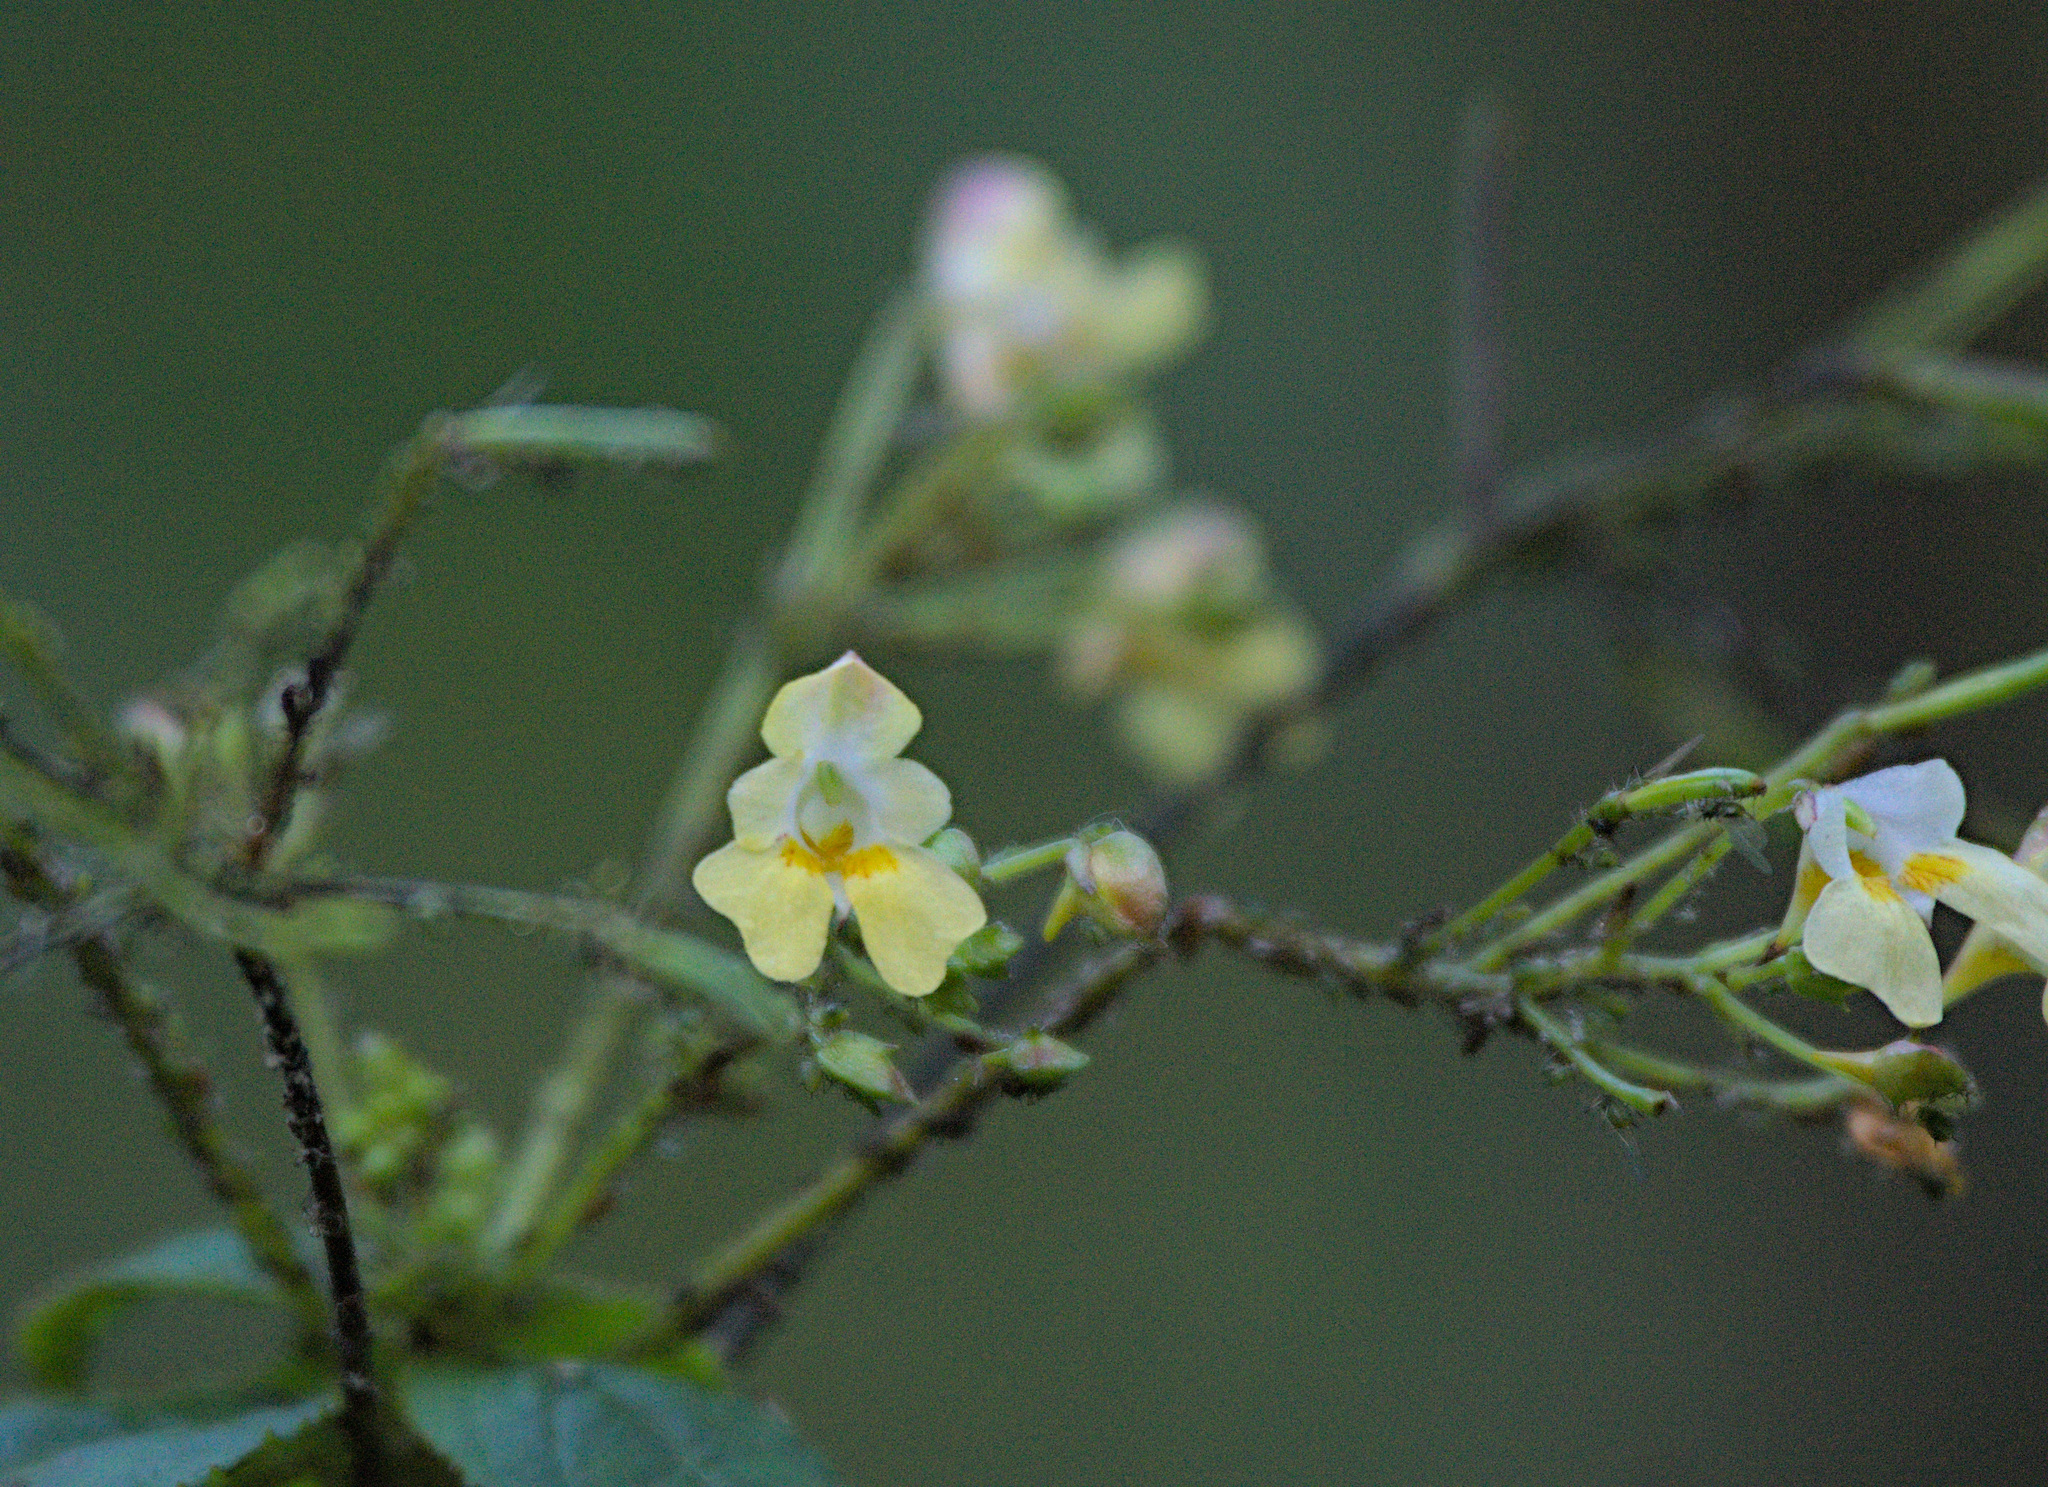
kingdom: Plantae
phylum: Tracheophyta
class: Magnoliopsida
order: Ericales
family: Balsaminaceae
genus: Impatiens
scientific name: Impatiens parviflora
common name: Small balsam
